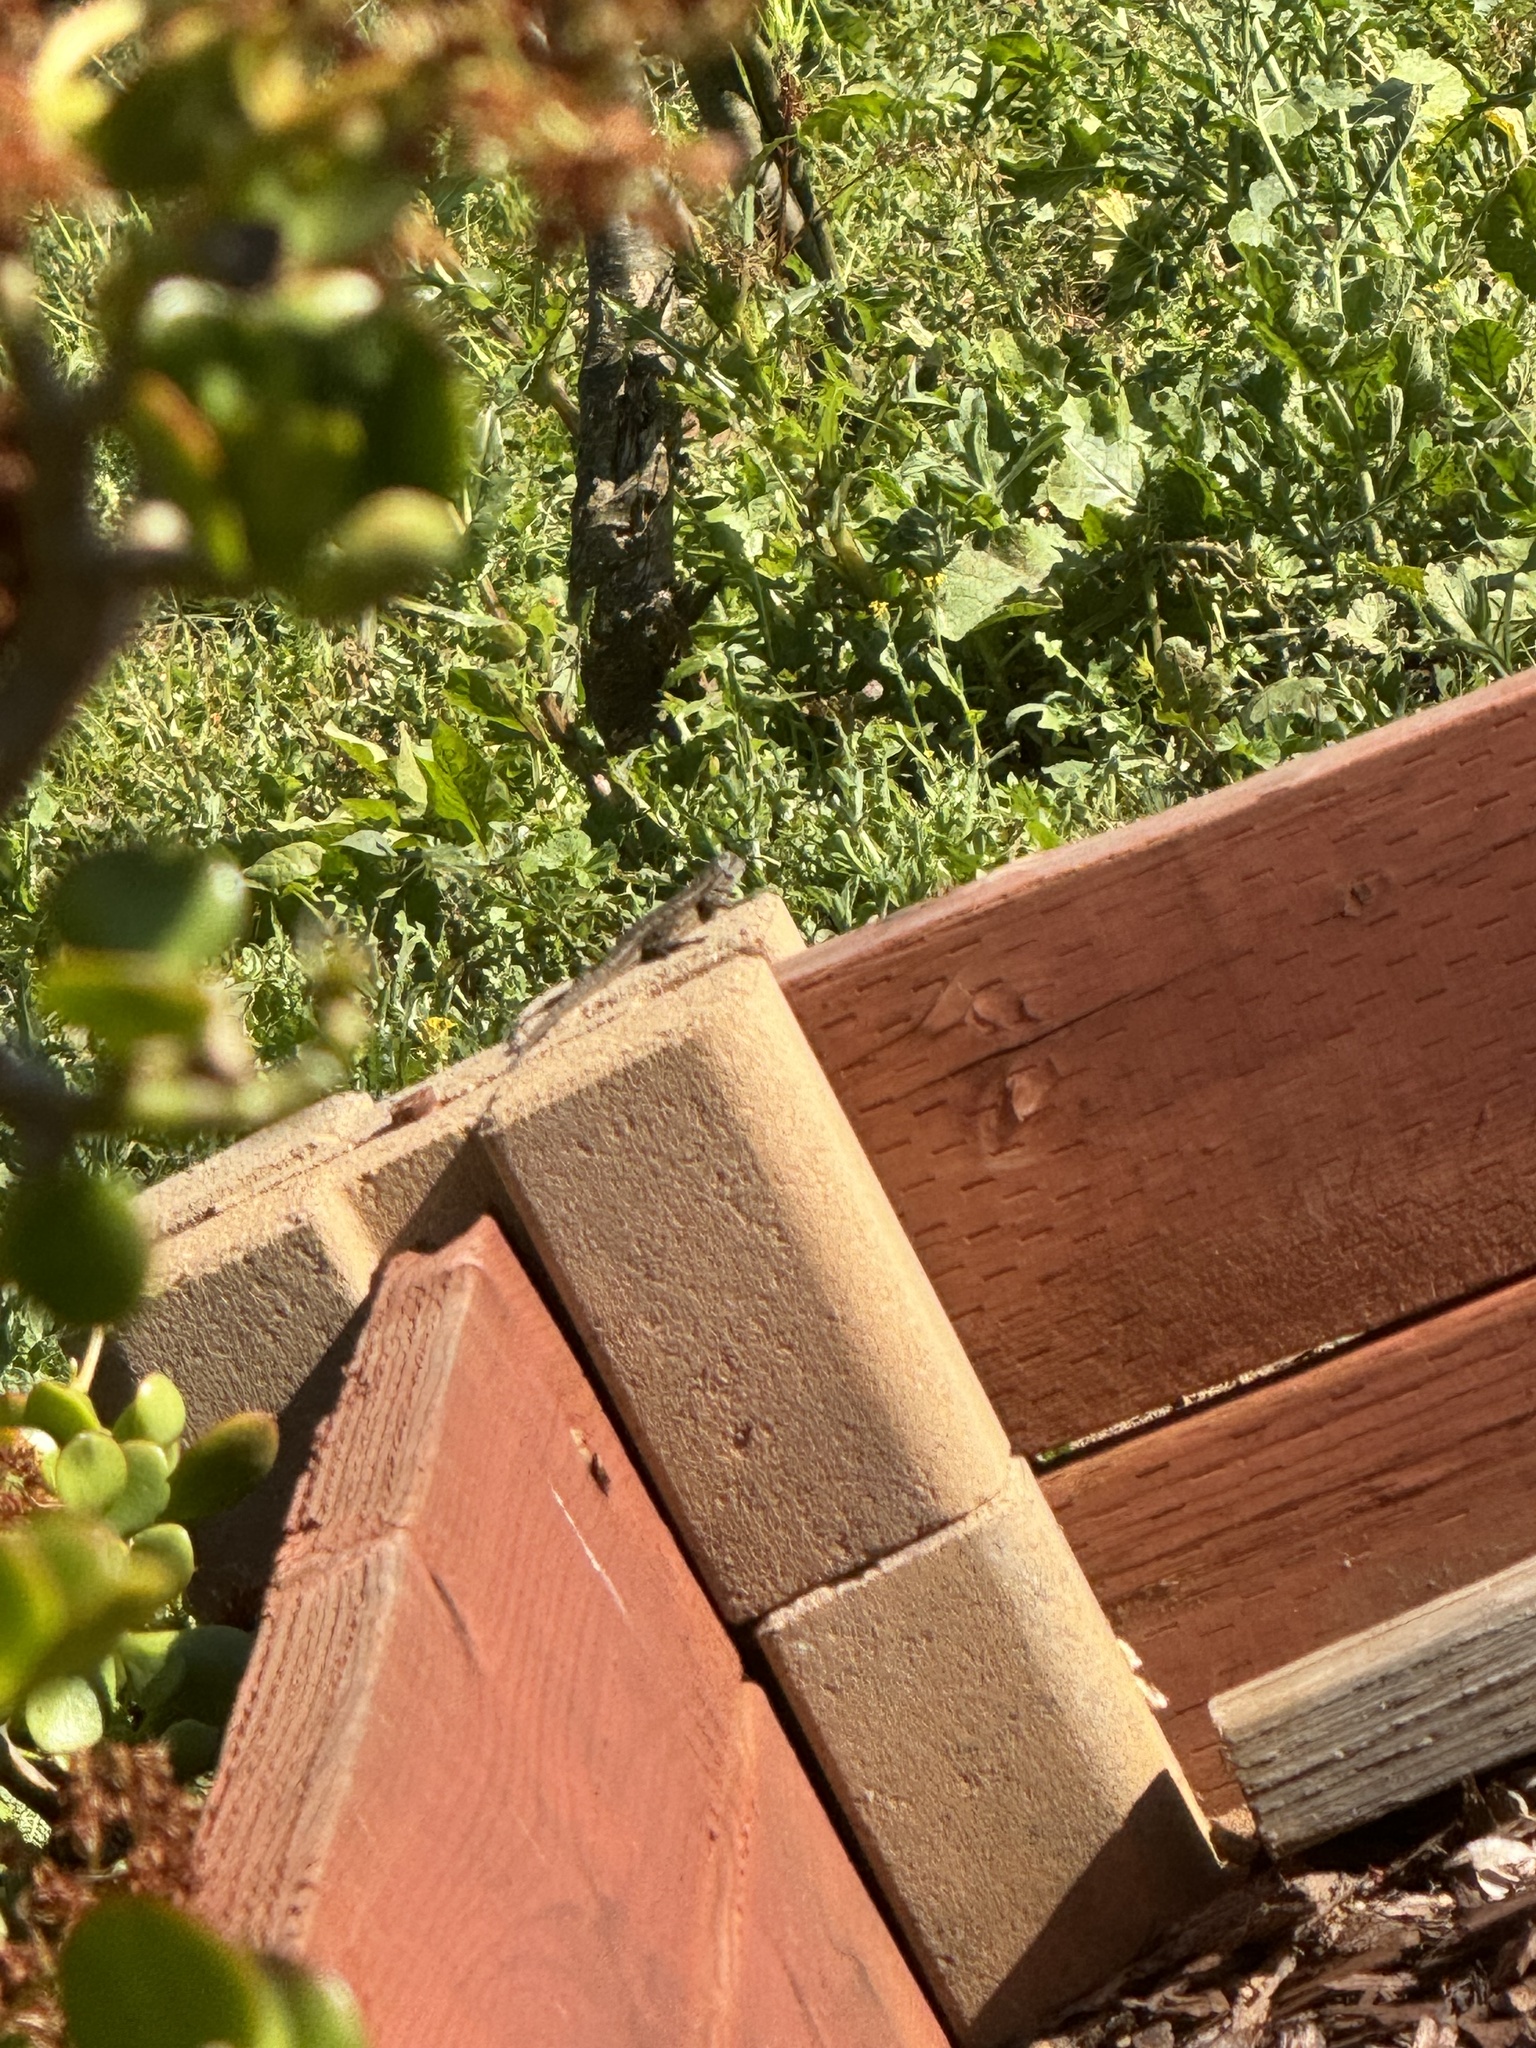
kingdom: Animalia
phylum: Chordata
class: Squamata
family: Phrynosomatidae
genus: Sceloporus
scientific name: Sceloporus occidentalis
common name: Western fence lizard
